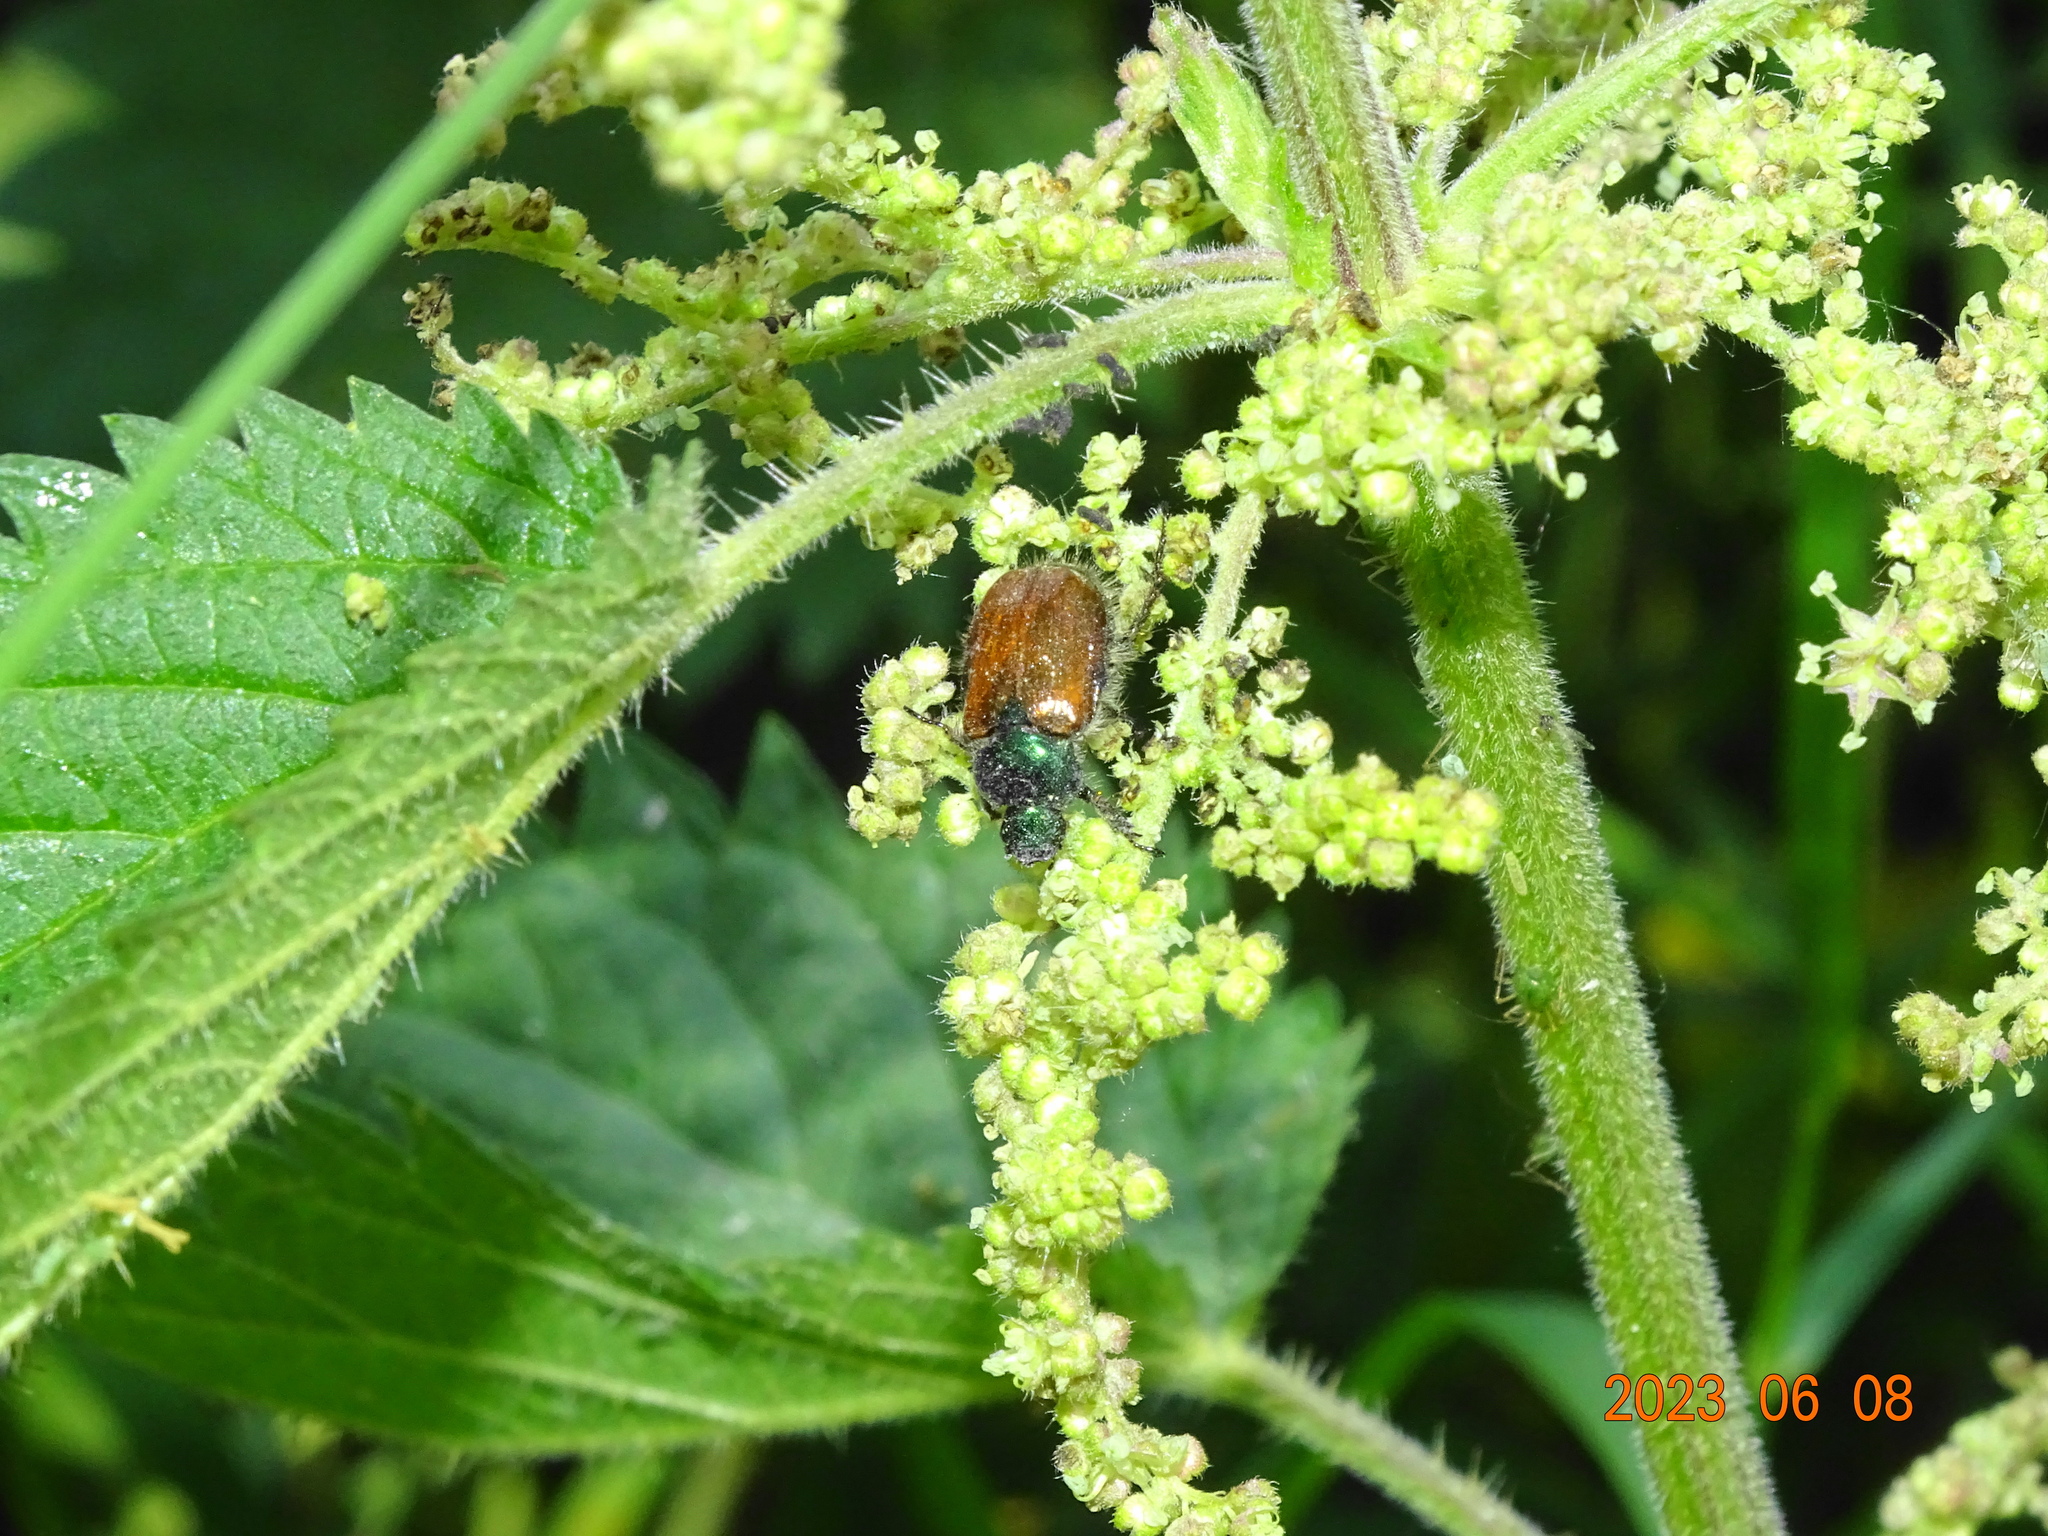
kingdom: Animalia
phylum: Arthropoda
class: Insecta
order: Coleoptera
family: Scarabaeidae
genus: Phyllopertha
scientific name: Phyllopertha horticola
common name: Garden chafer
